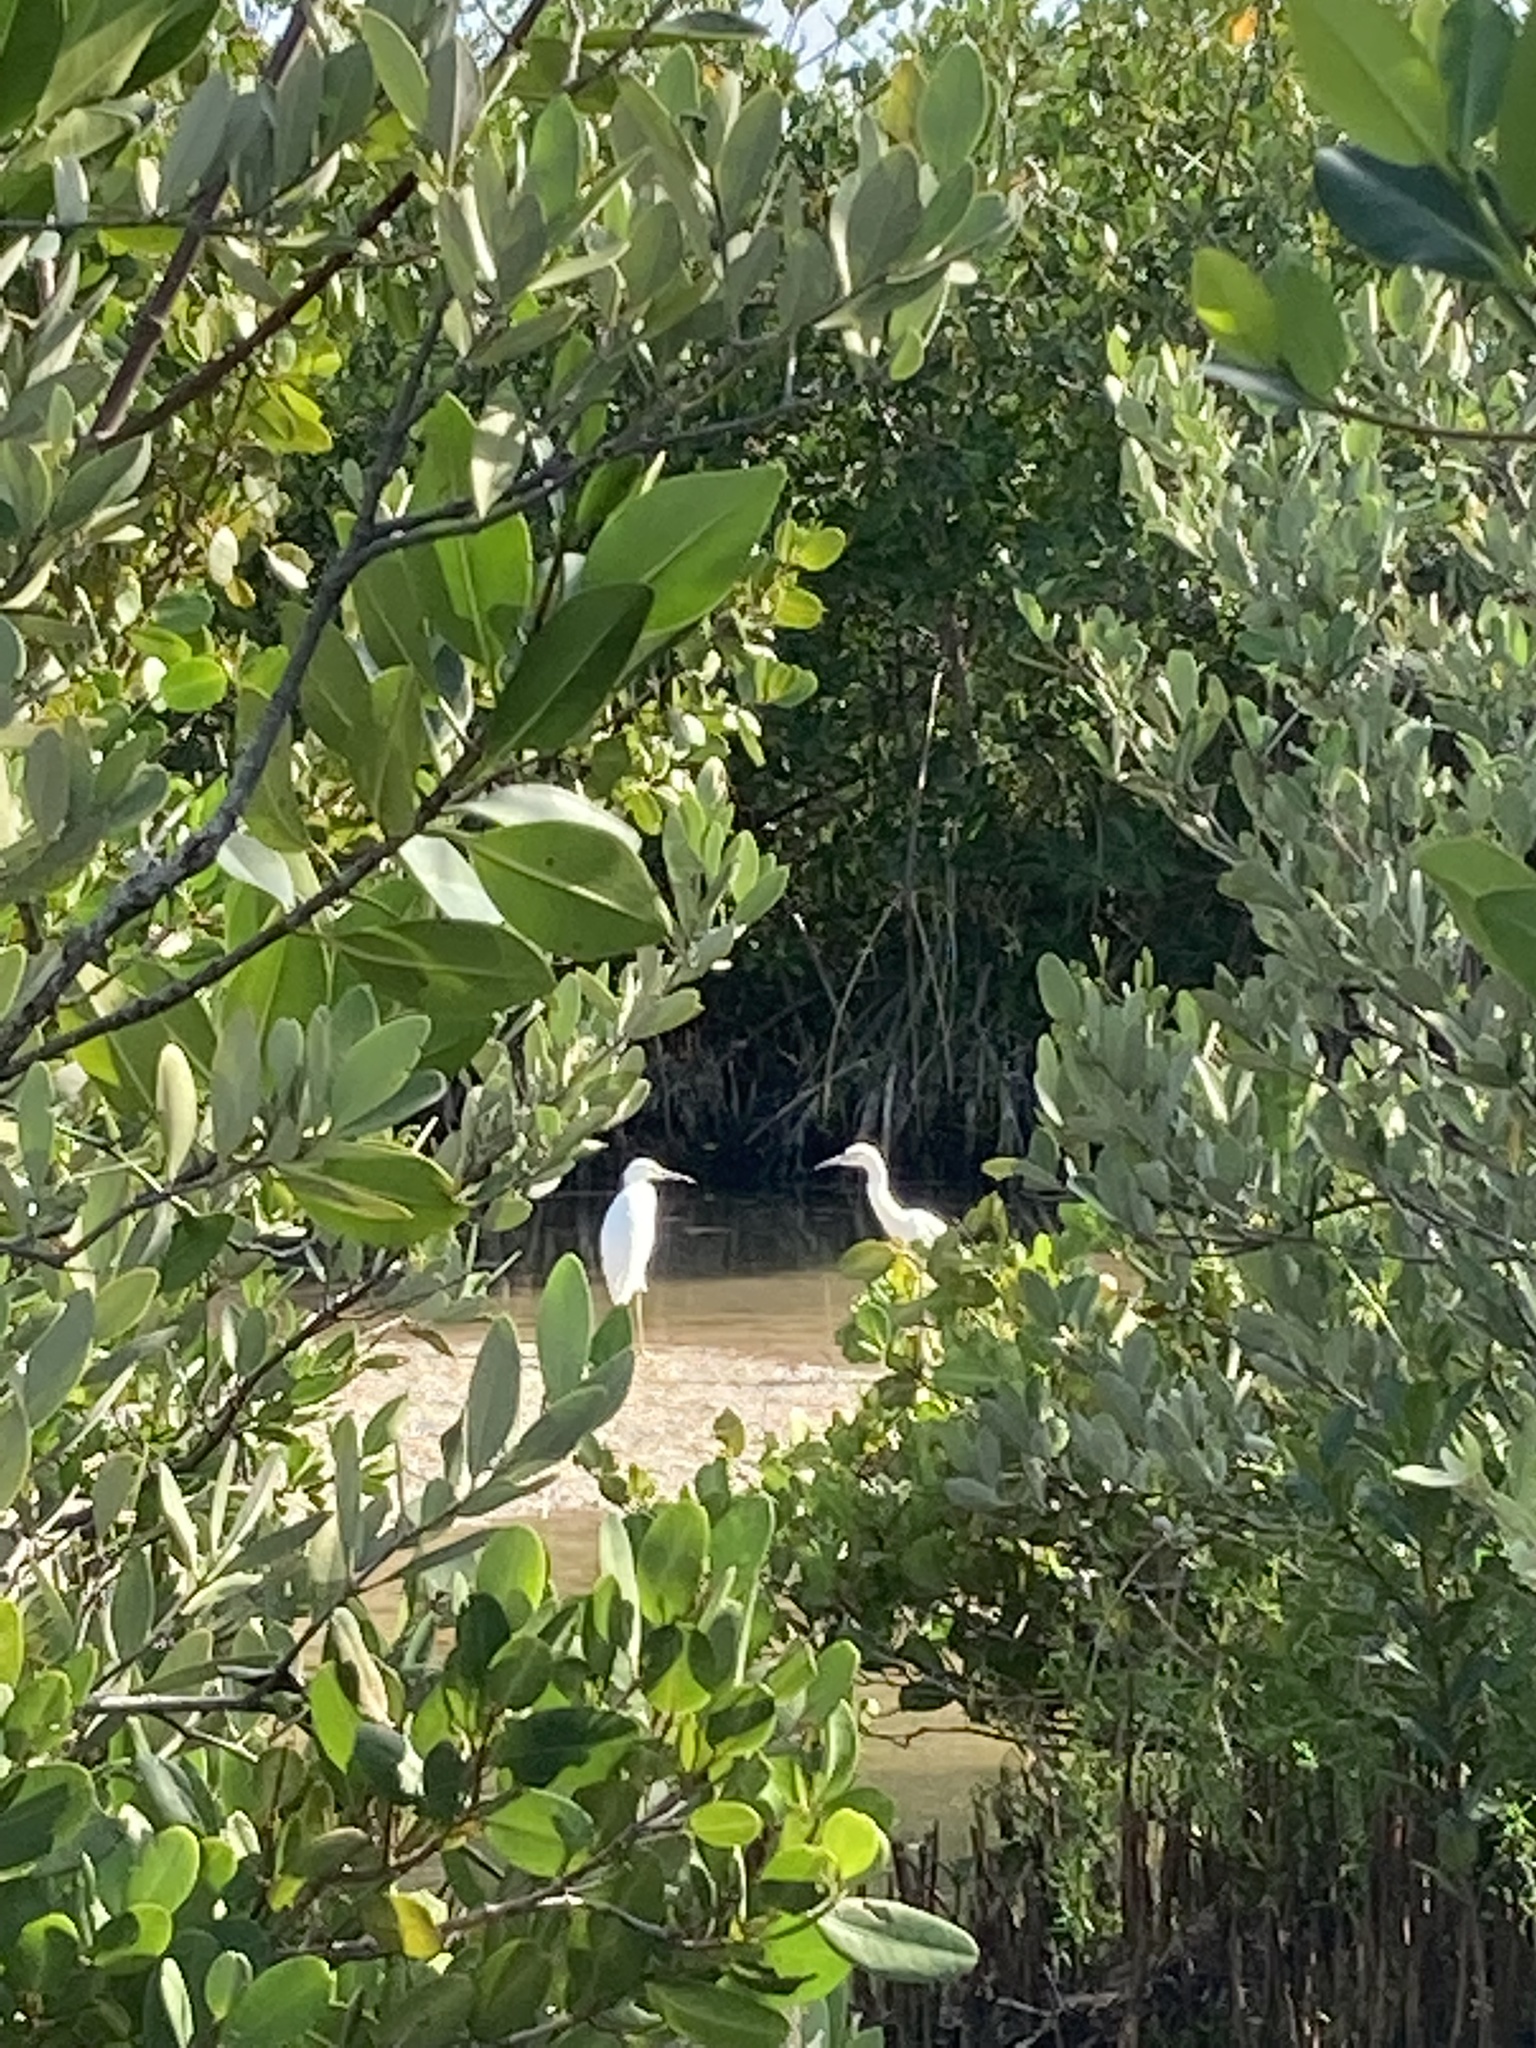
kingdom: Animalia
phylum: Chordata
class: Aves
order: Pelecaniformes
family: Ardeidae
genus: Ardea
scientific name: Ardea alba
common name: Great egret
